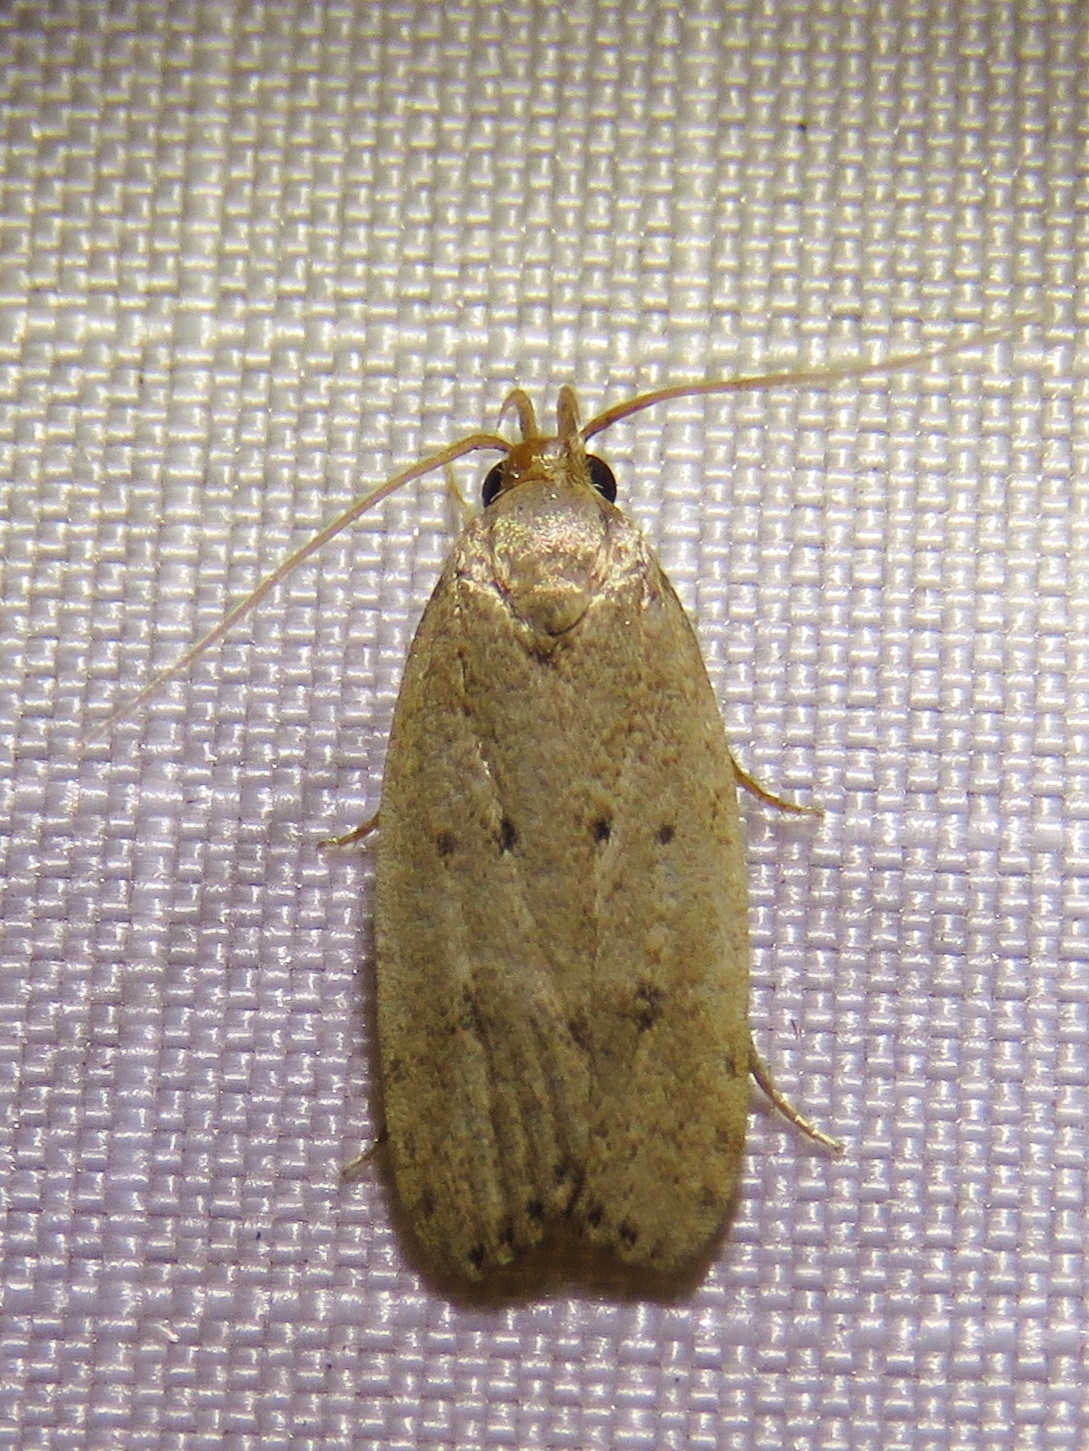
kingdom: Animalia
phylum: Arthropoda
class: Insecta
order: Lepidoptera
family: Autostichidae
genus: Autosticha
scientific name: Autosticha kyotensis
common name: Kyoto moth
